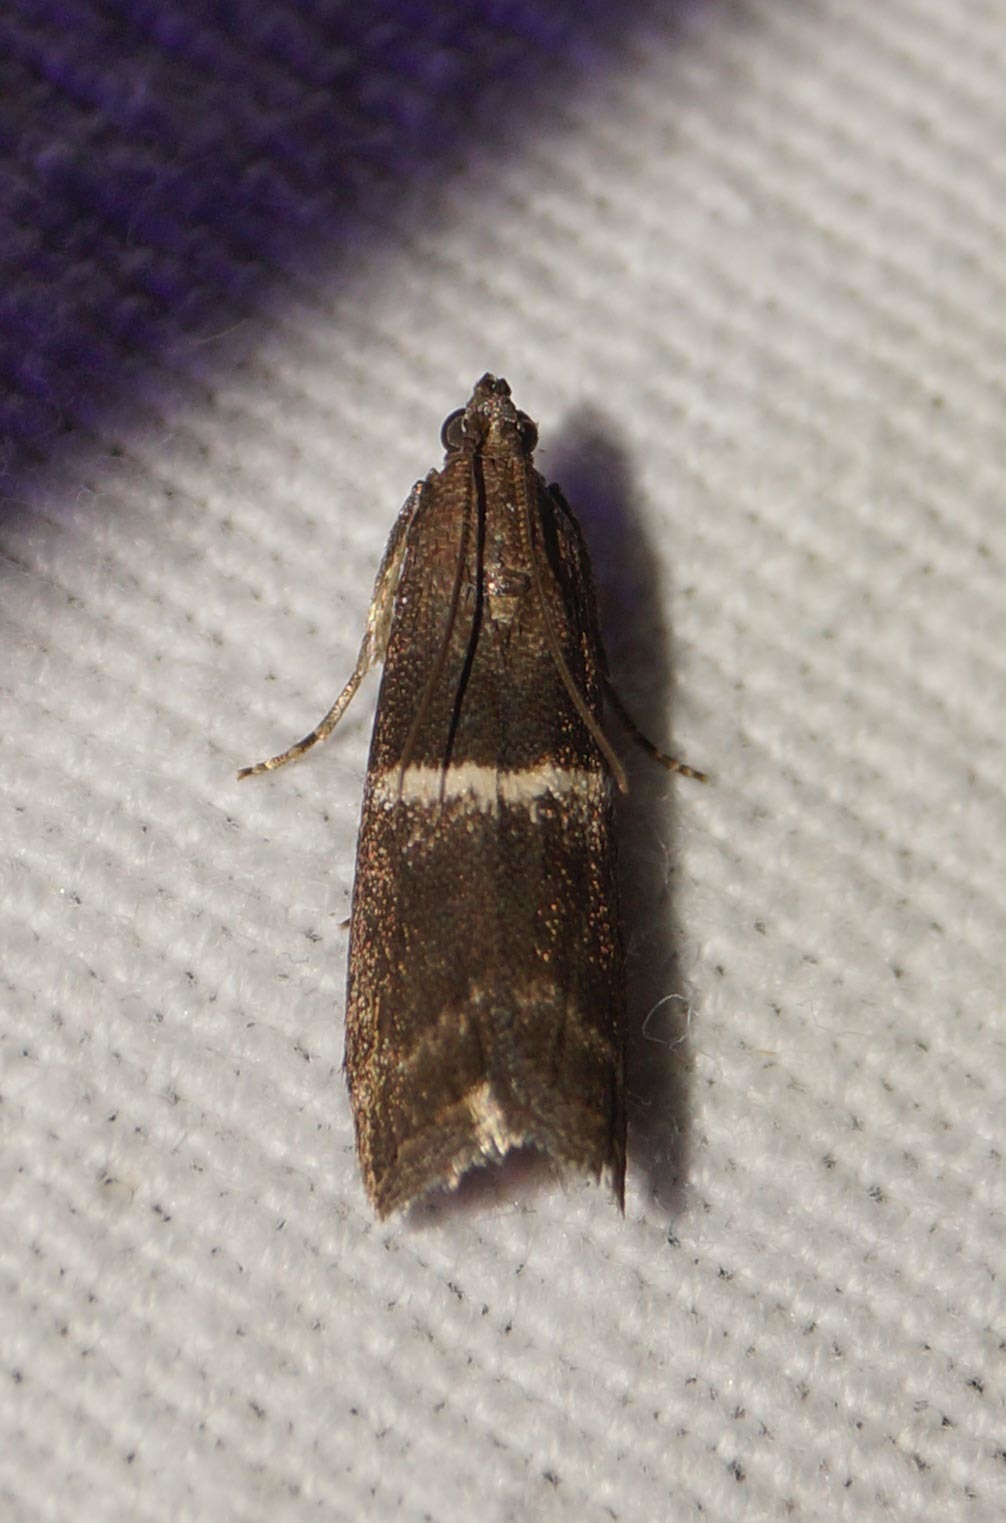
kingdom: Animalia
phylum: Arthropoda
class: Insecta
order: Lepidoptera
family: Pyralidae
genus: Elegia
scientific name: Elegia similella
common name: White-barred knot-horn
